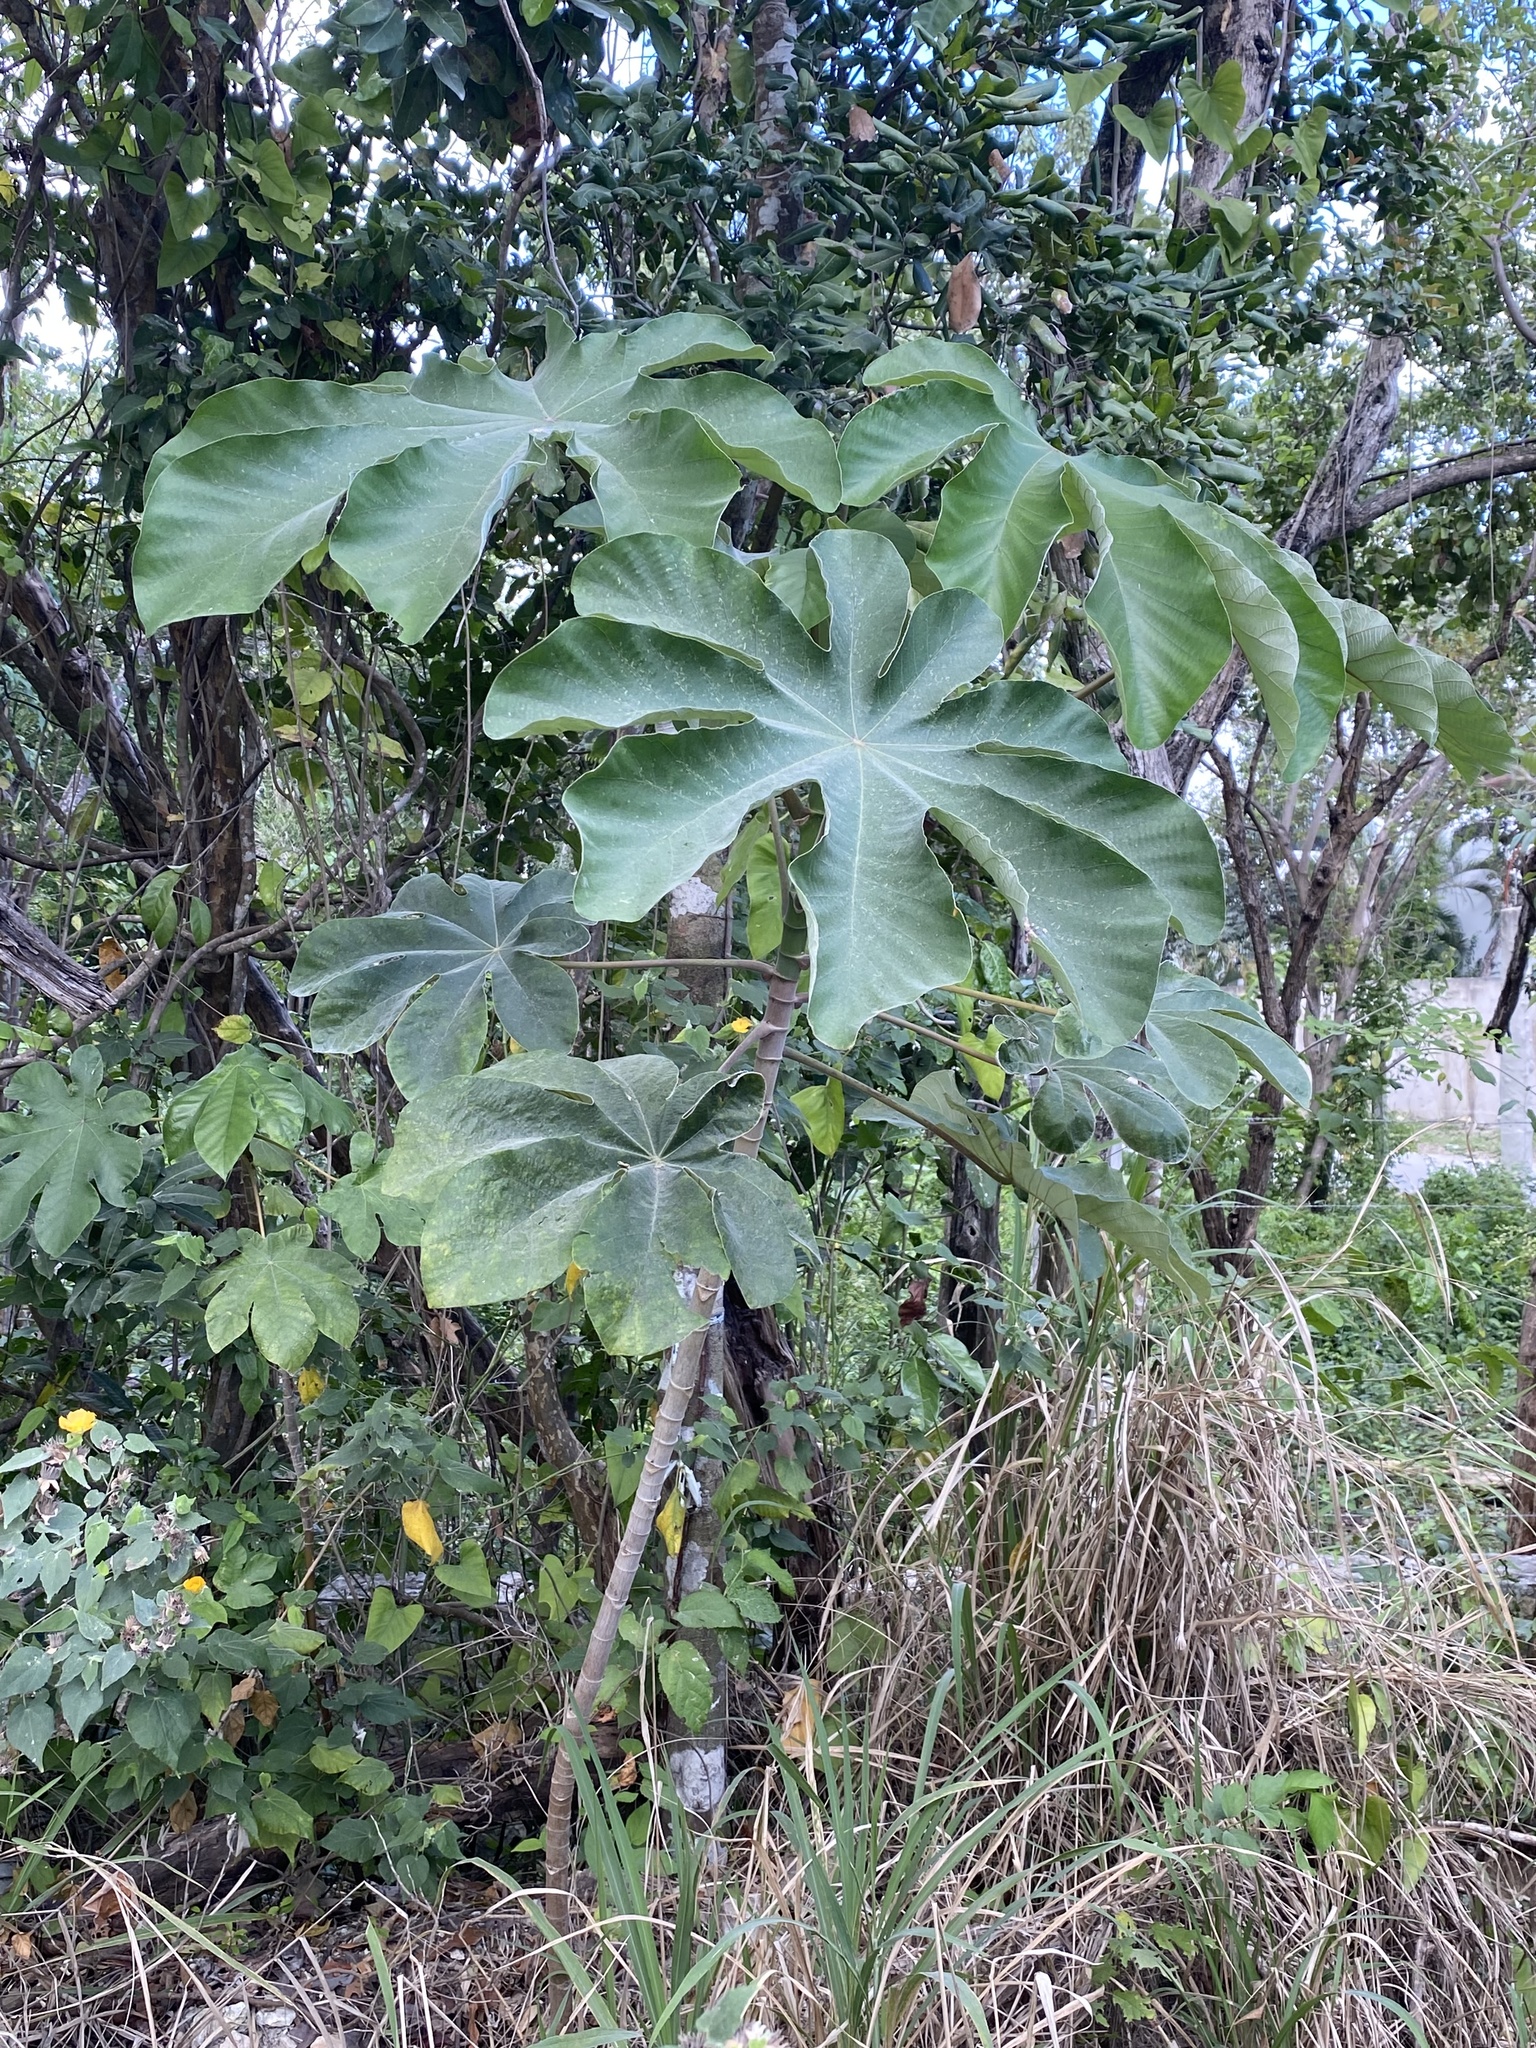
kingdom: Plantae
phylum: Tracheophyta
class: Magnoliopsida
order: Rosales
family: Urticaceae
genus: Cecropia
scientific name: Cecropia peltata
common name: Trumpet-tree
